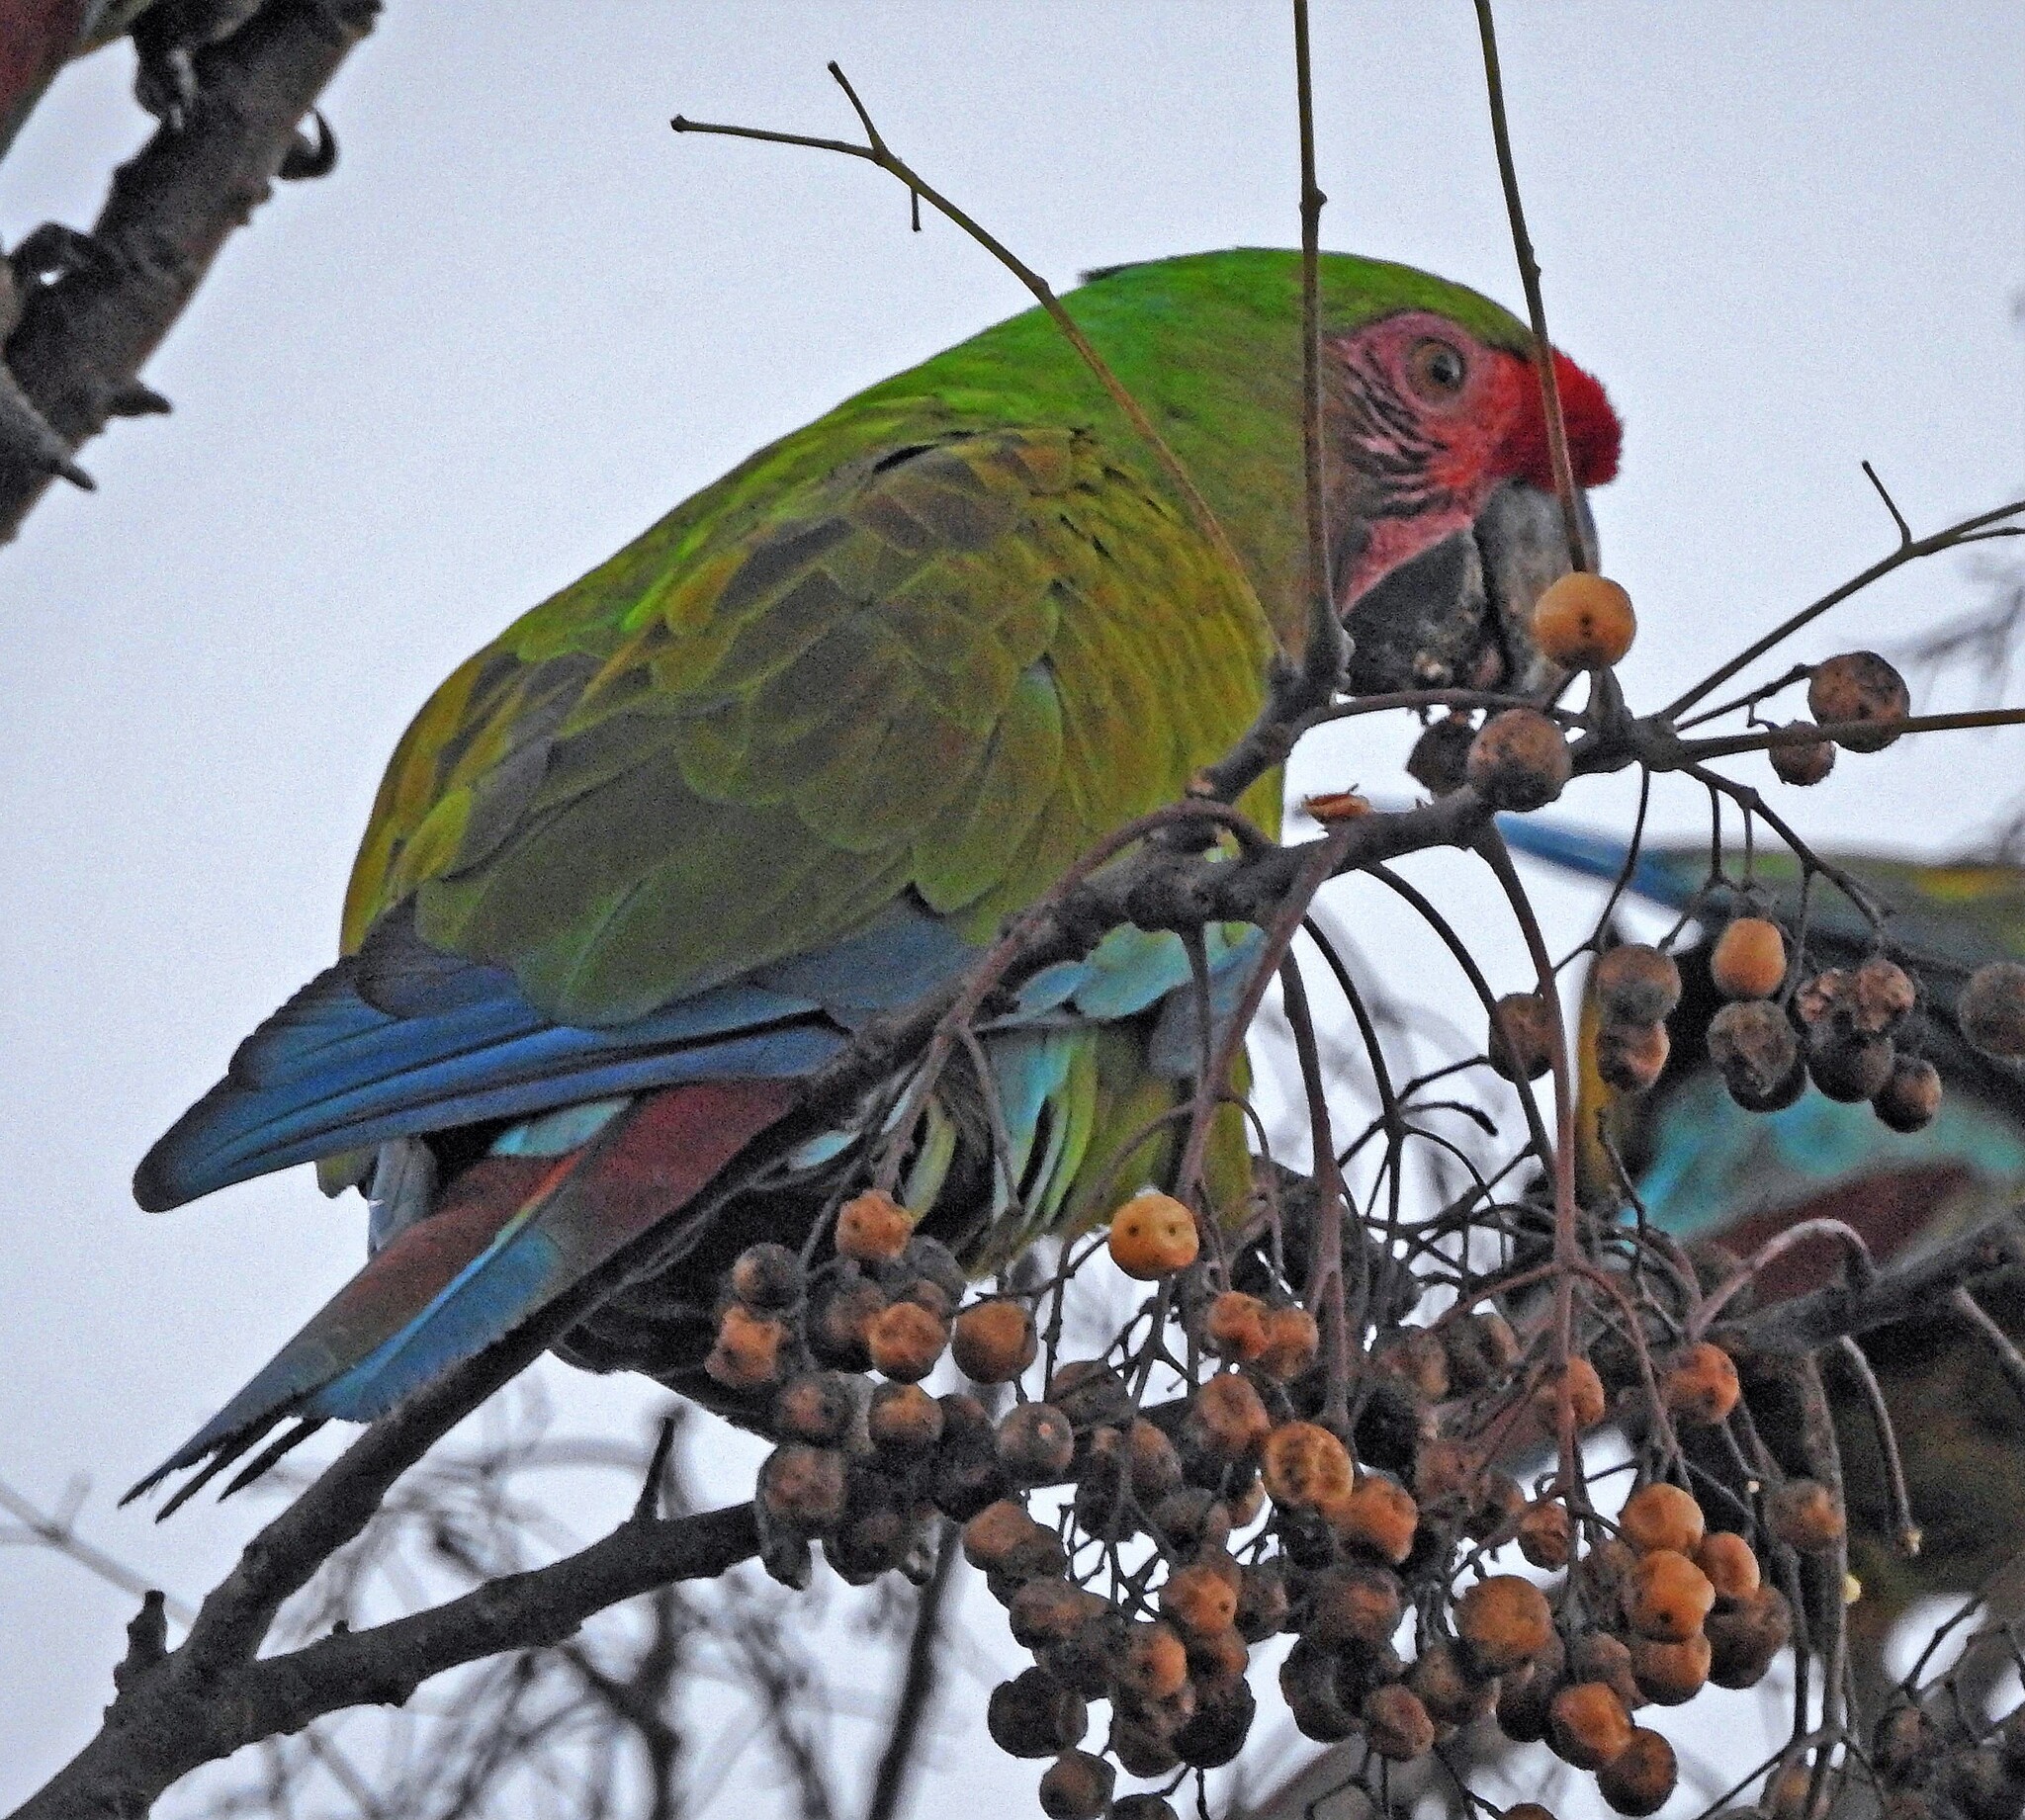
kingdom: Animalia
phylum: Chordata
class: Aves
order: Psittaciformes
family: Psittacidae
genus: Ara
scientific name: Ara militaris
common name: Military macaw
